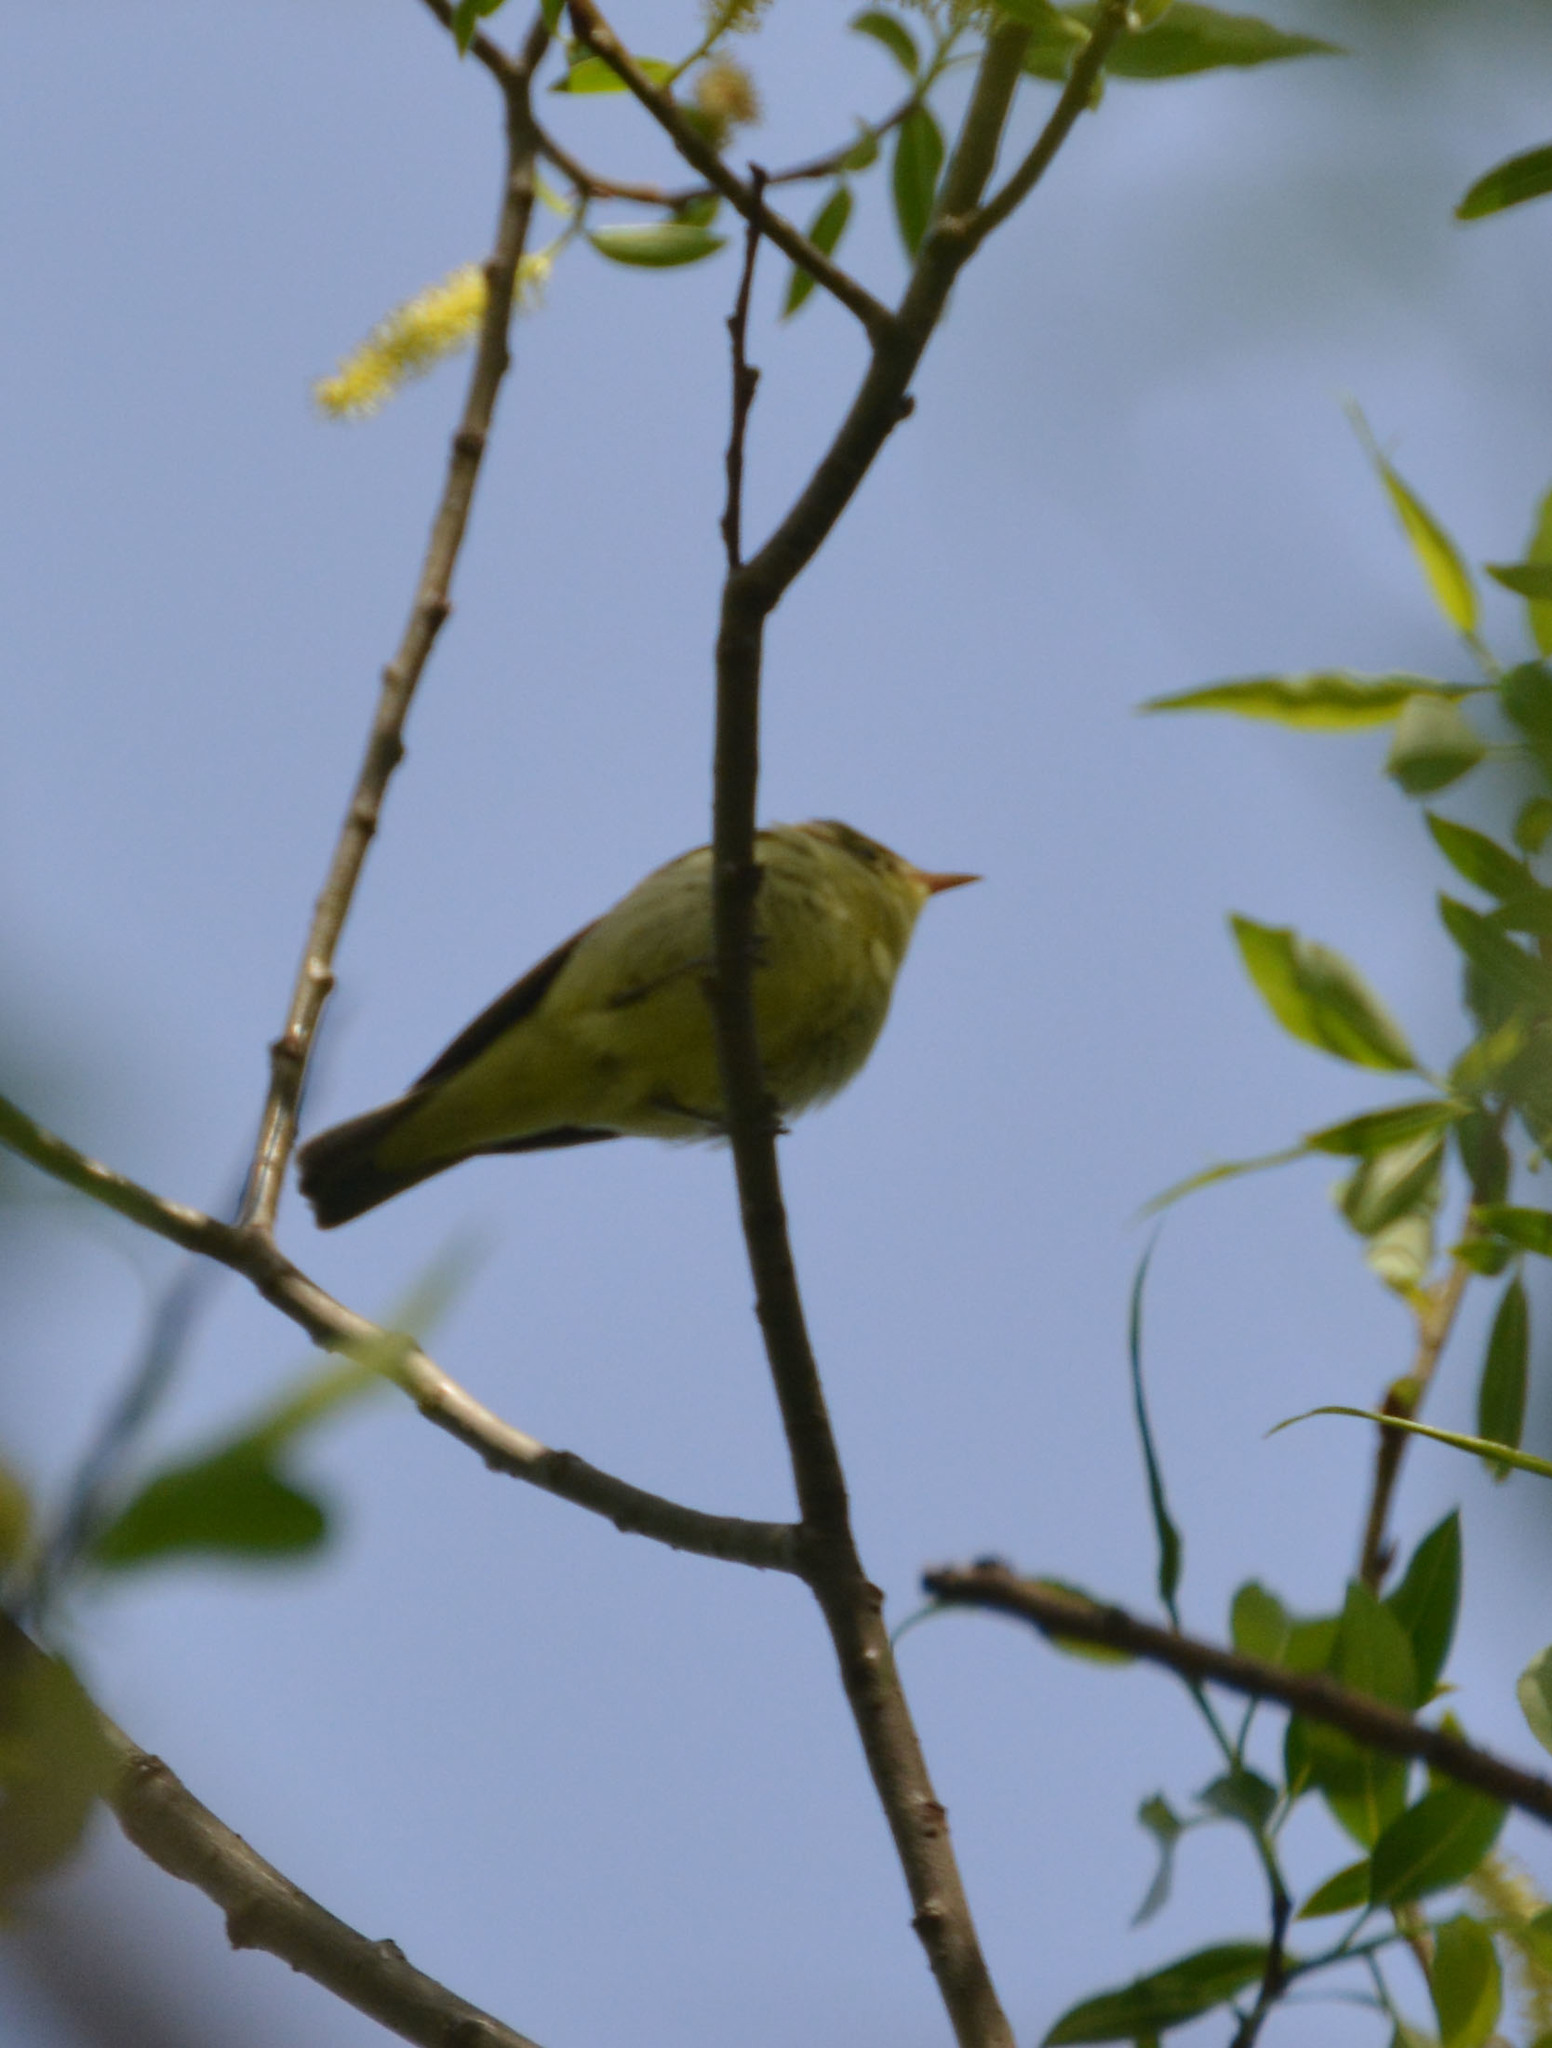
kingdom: Animalia
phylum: Chordata
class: Aves
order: Passeriformes
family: Acrocephalidae
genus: Hippolais
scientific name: Hippolais icterina
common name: Icterine warbler
